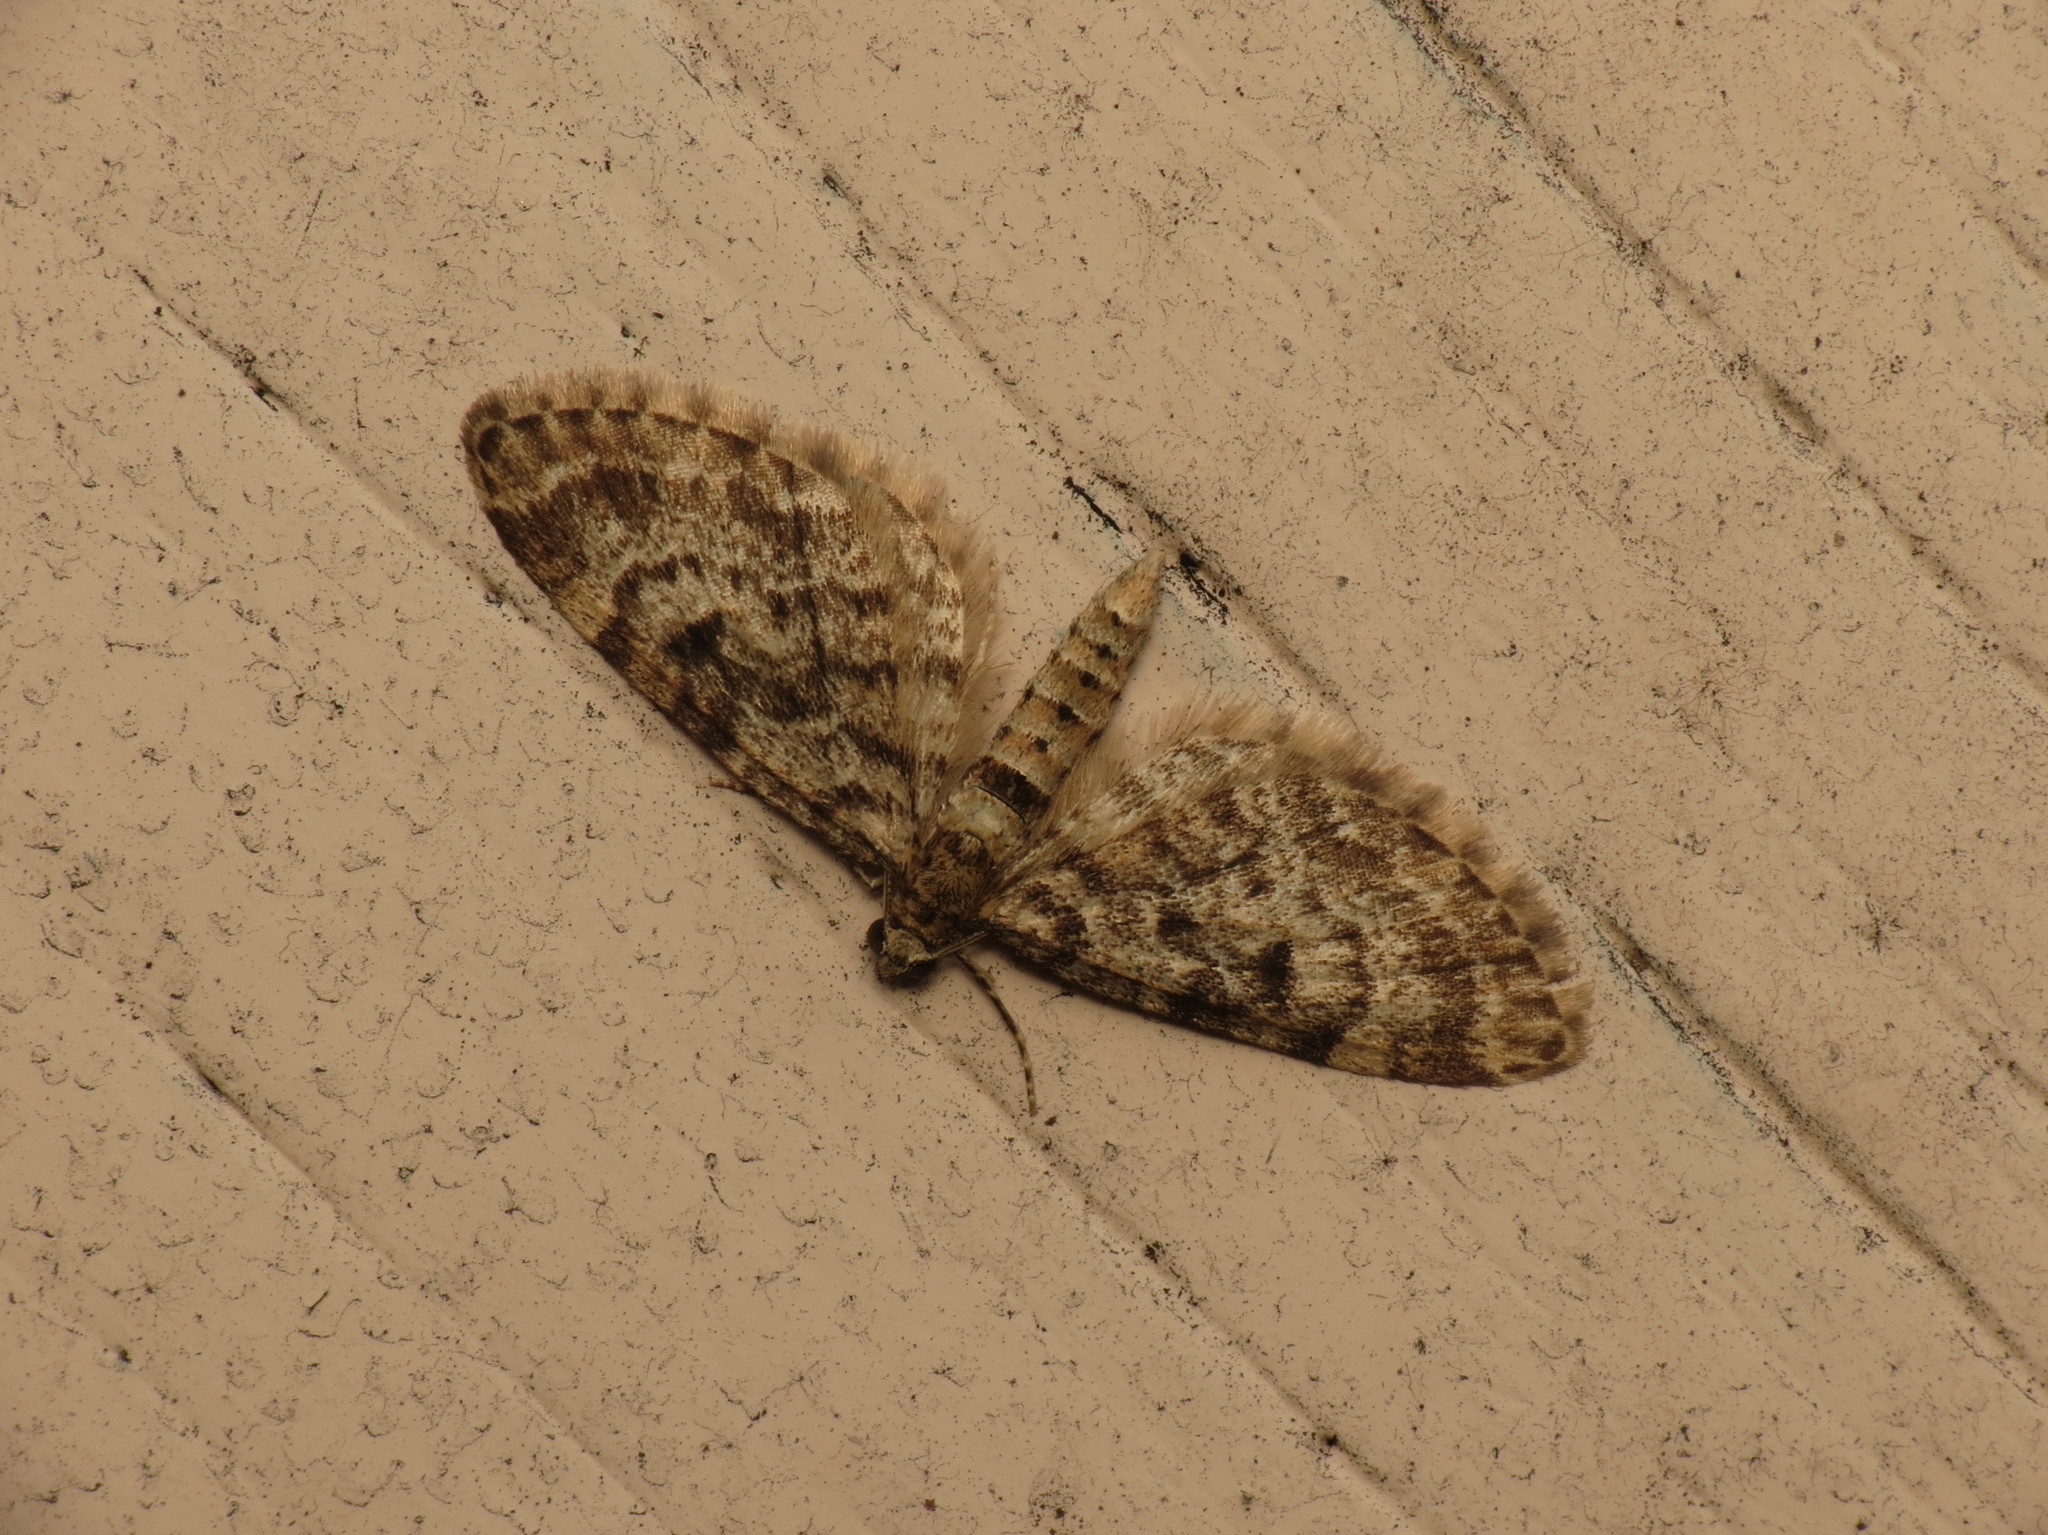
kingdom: Animalia
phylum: Arthropoda
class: Insecta
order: Lepidoptera
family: Geometridae
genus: Eupithecia
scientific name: Eupithecia tantillaria
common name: Dwarf pug
